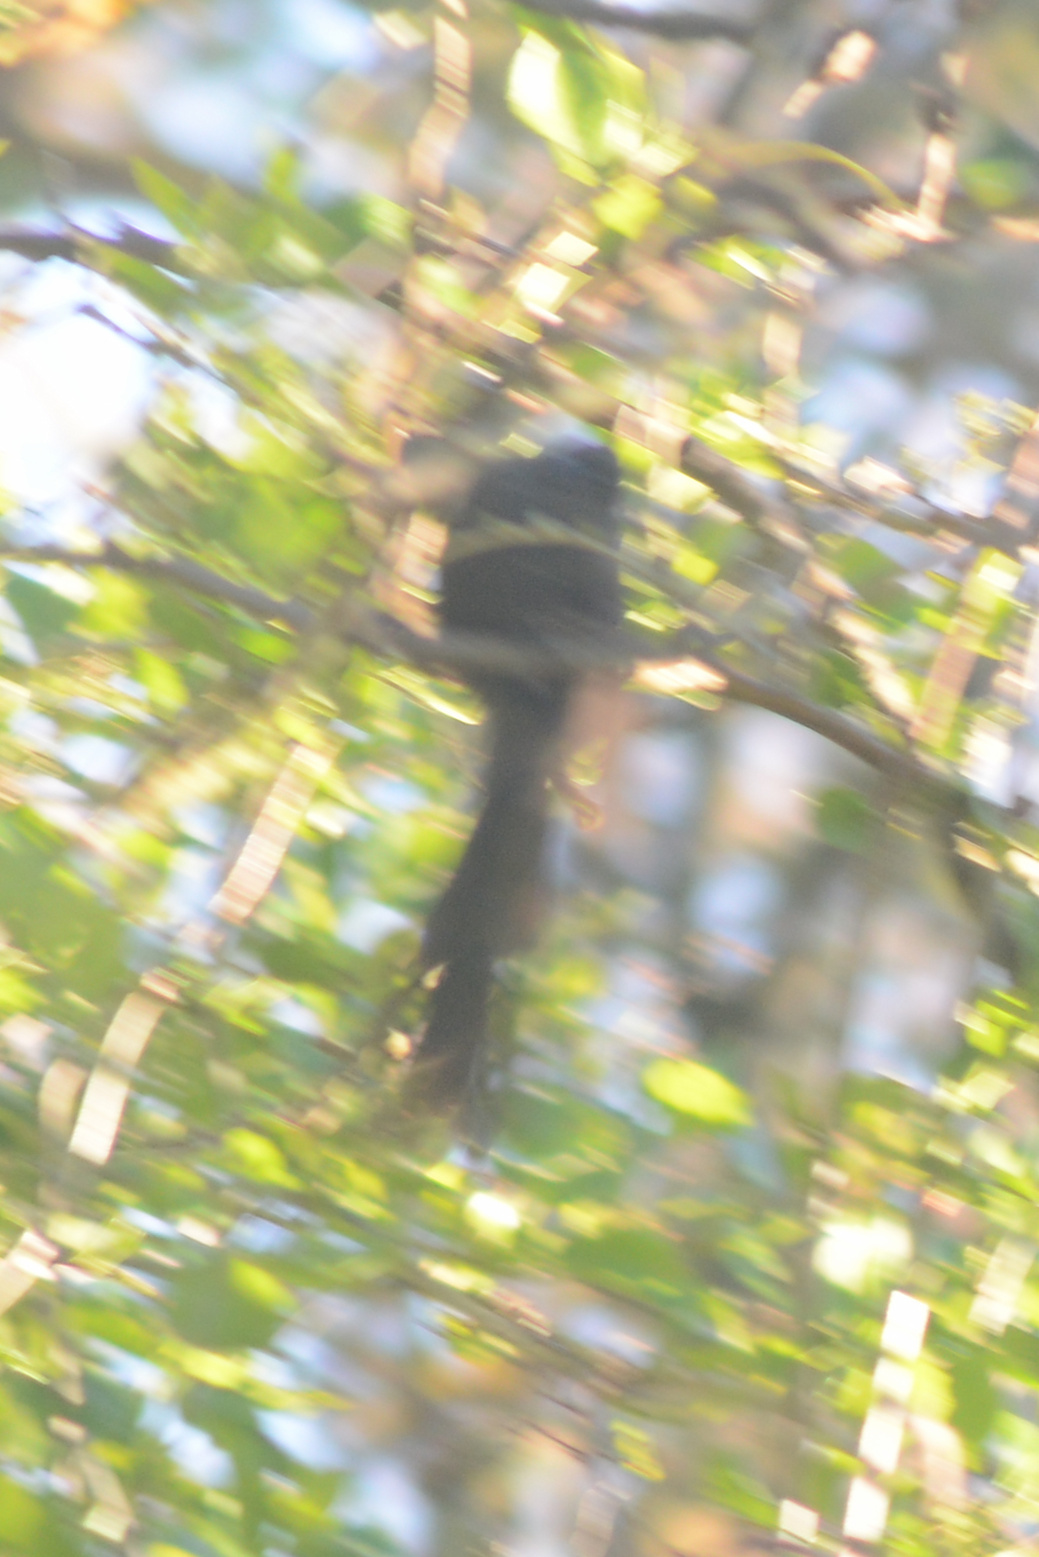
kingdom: Animalia
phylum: Chordata
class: Aves
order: Passeriformes
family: Rhipiduridae
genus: Rhipidura
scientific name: Rhipidura fuliginosa
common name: New zealand fantail
